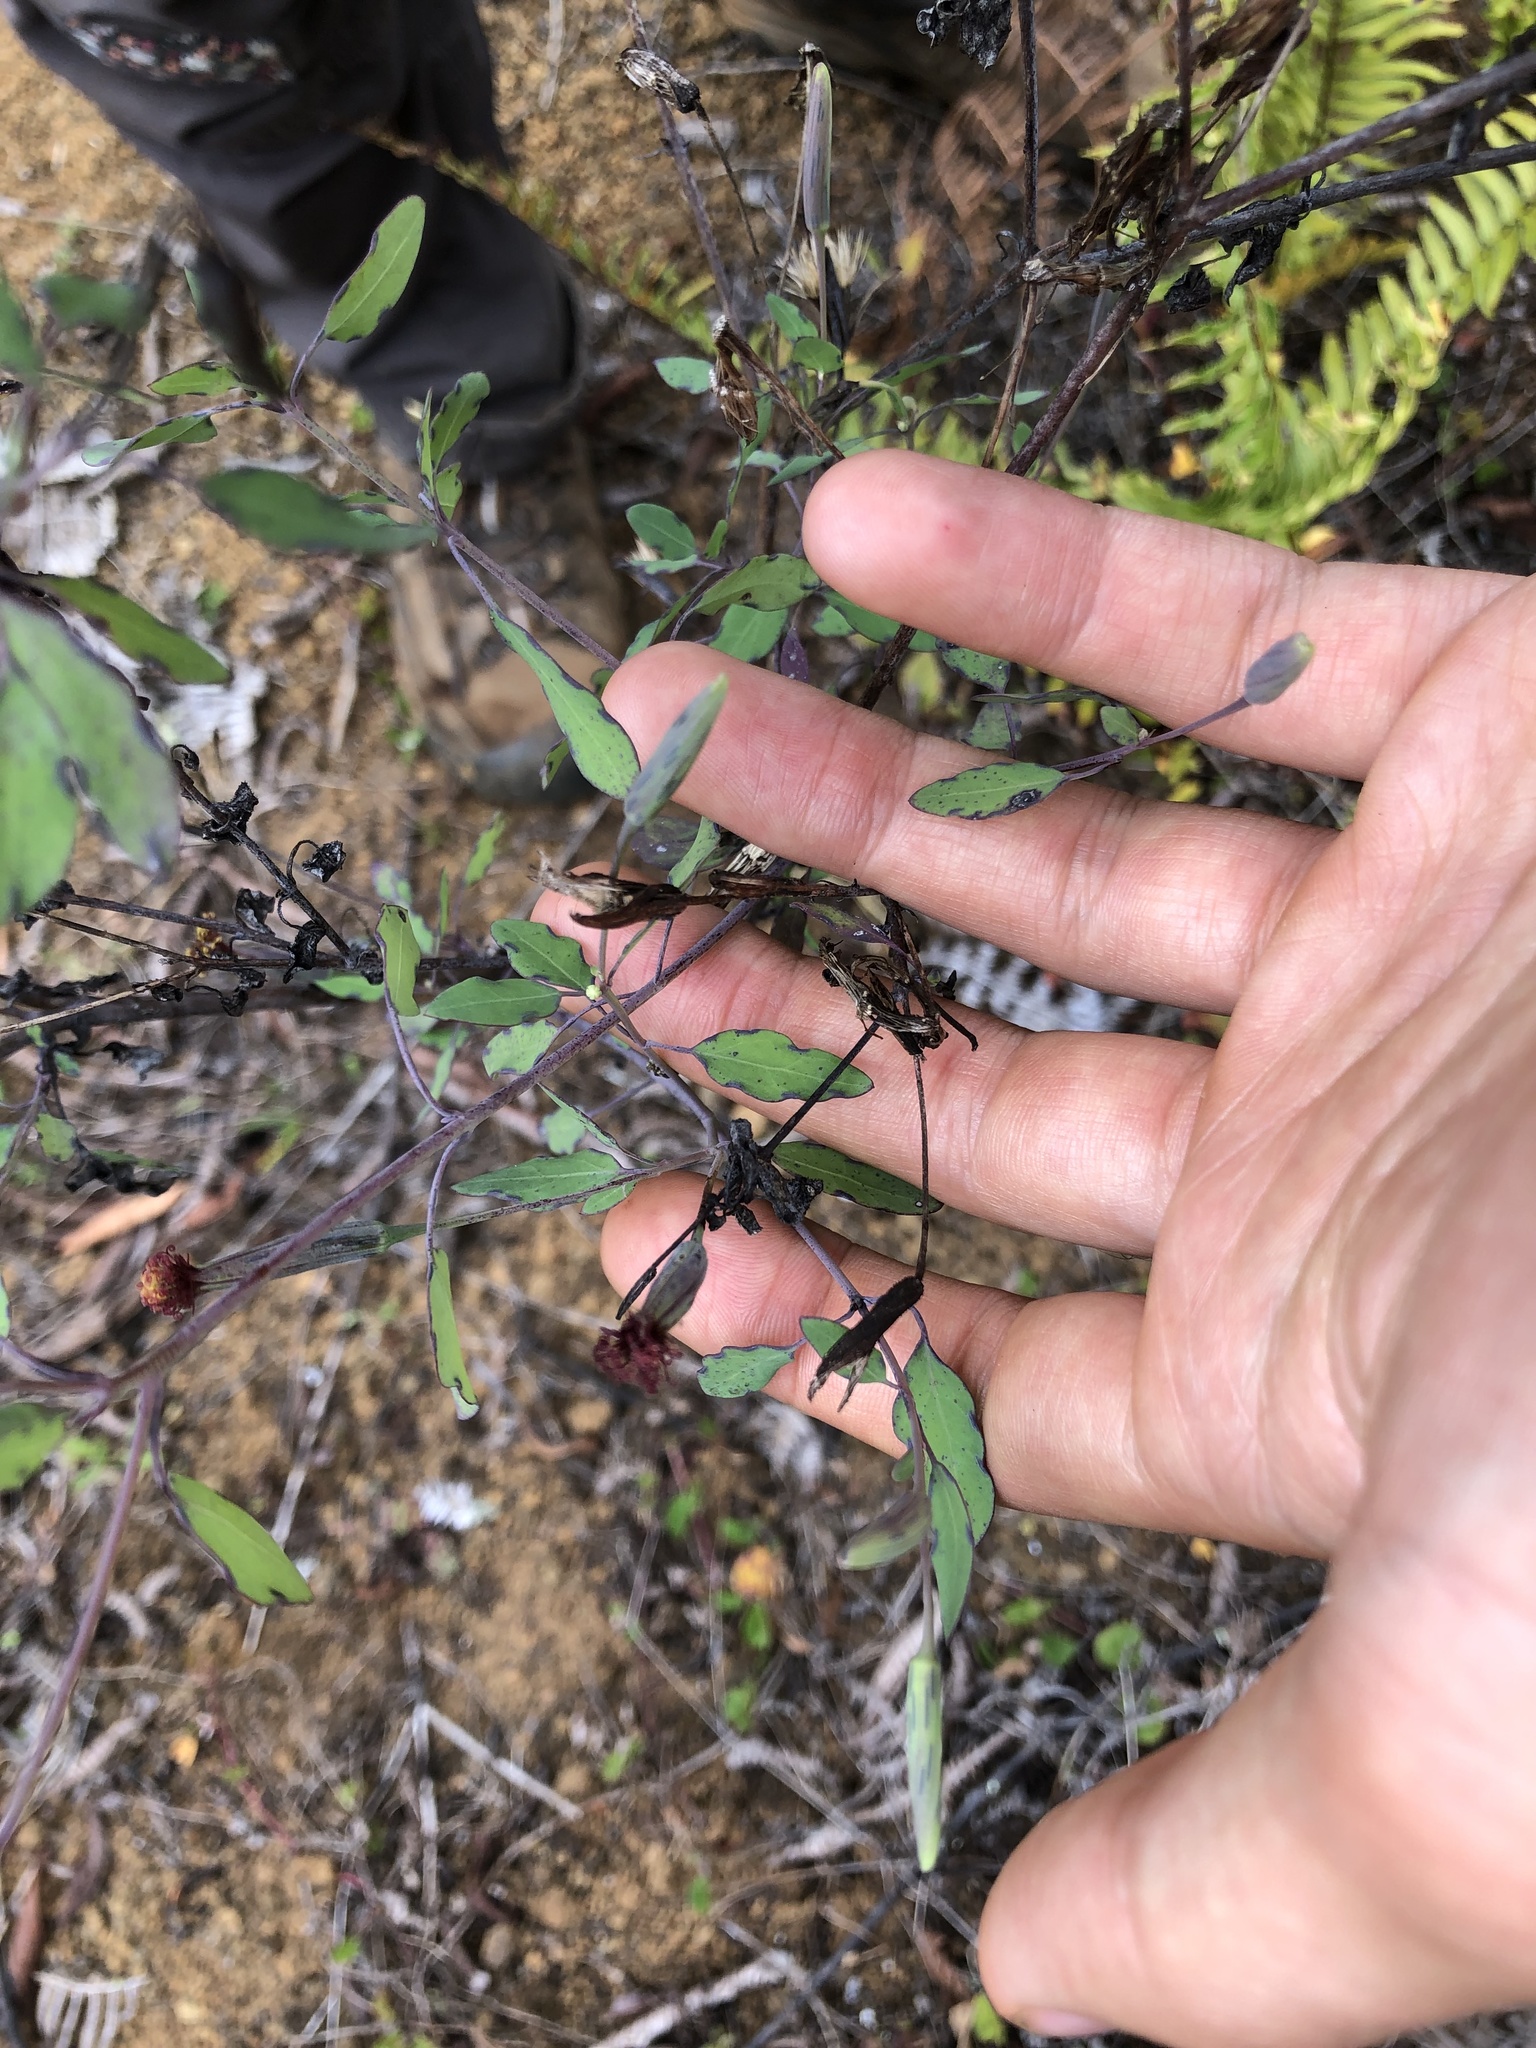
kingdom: Plantae
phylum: Tracheophyta
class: Magnoliopsida
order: Asterales
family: Asteraceae
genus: Porophyllum
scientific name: Porophyllum ruderale
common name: Yerba porosa
